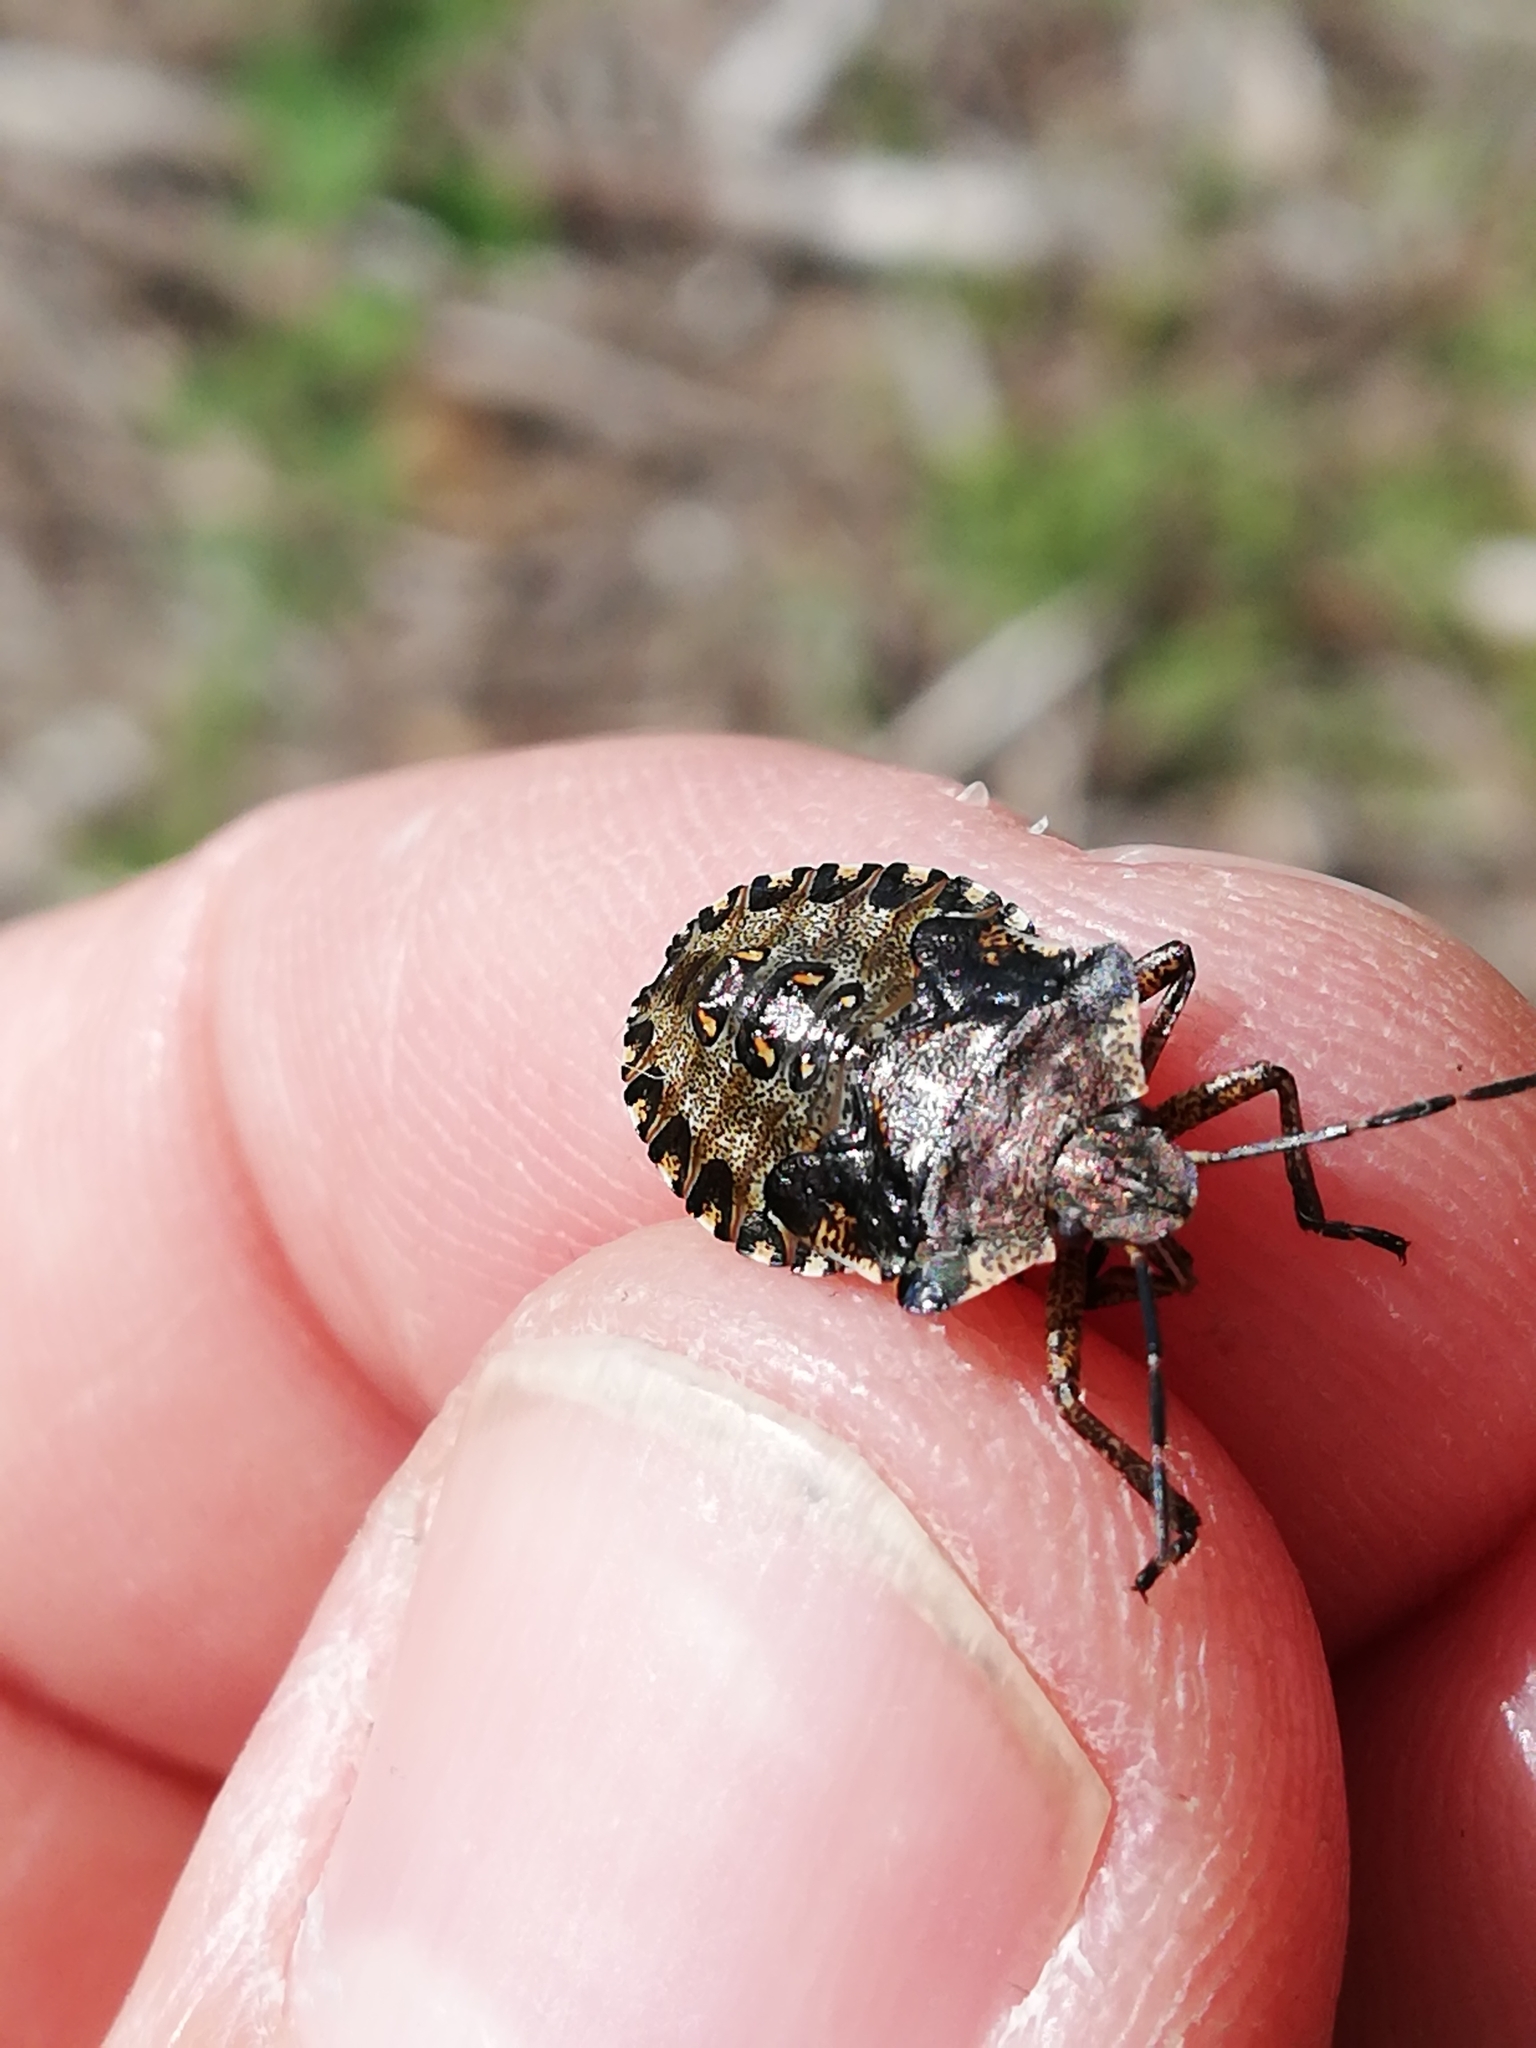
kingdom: Animalia
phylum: Arthropoda
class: Insecta
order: Hemiptera
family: Pentatomidae
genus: Pentatoma
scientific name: Pentatoma rufipes
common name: Forest bug
